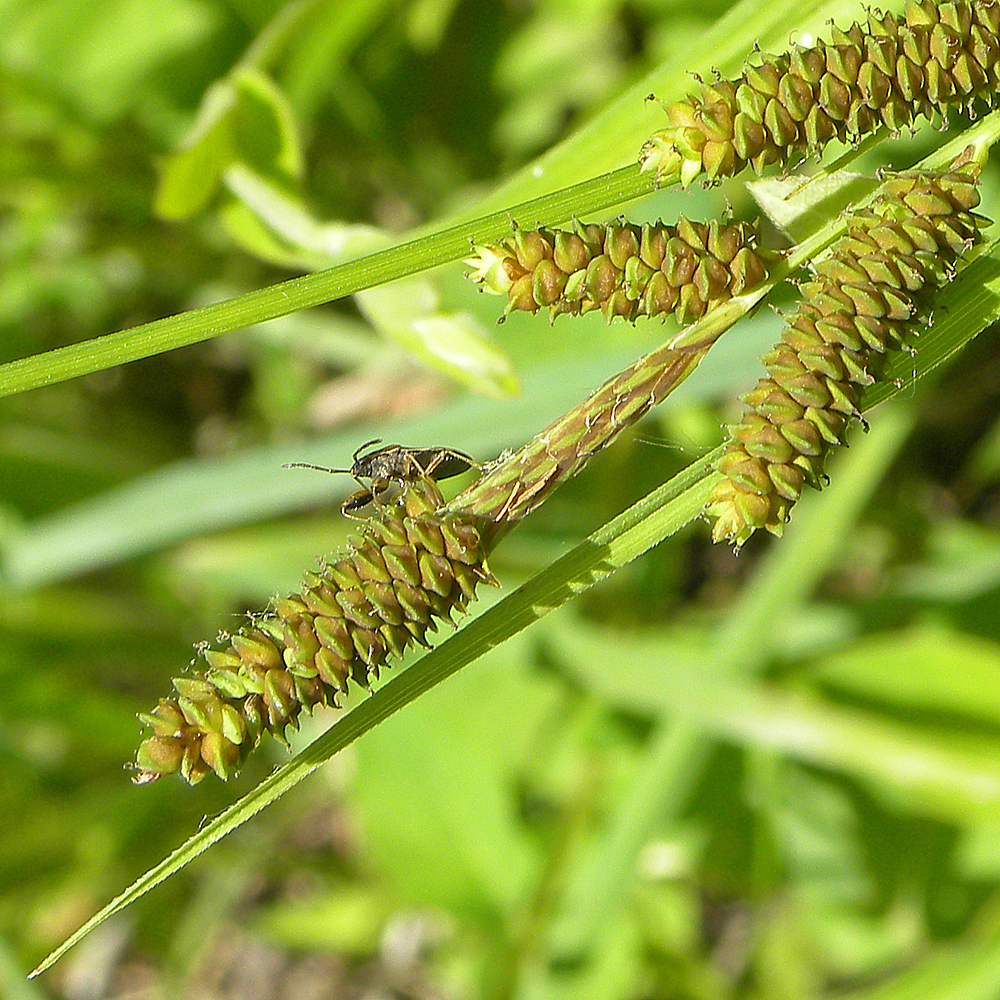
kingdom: Animalia
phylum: Arthropoda
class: Insecta
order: Hemiptera
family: Pachygronthidae
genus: Oedancala
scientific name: Oedancala dorsalis
